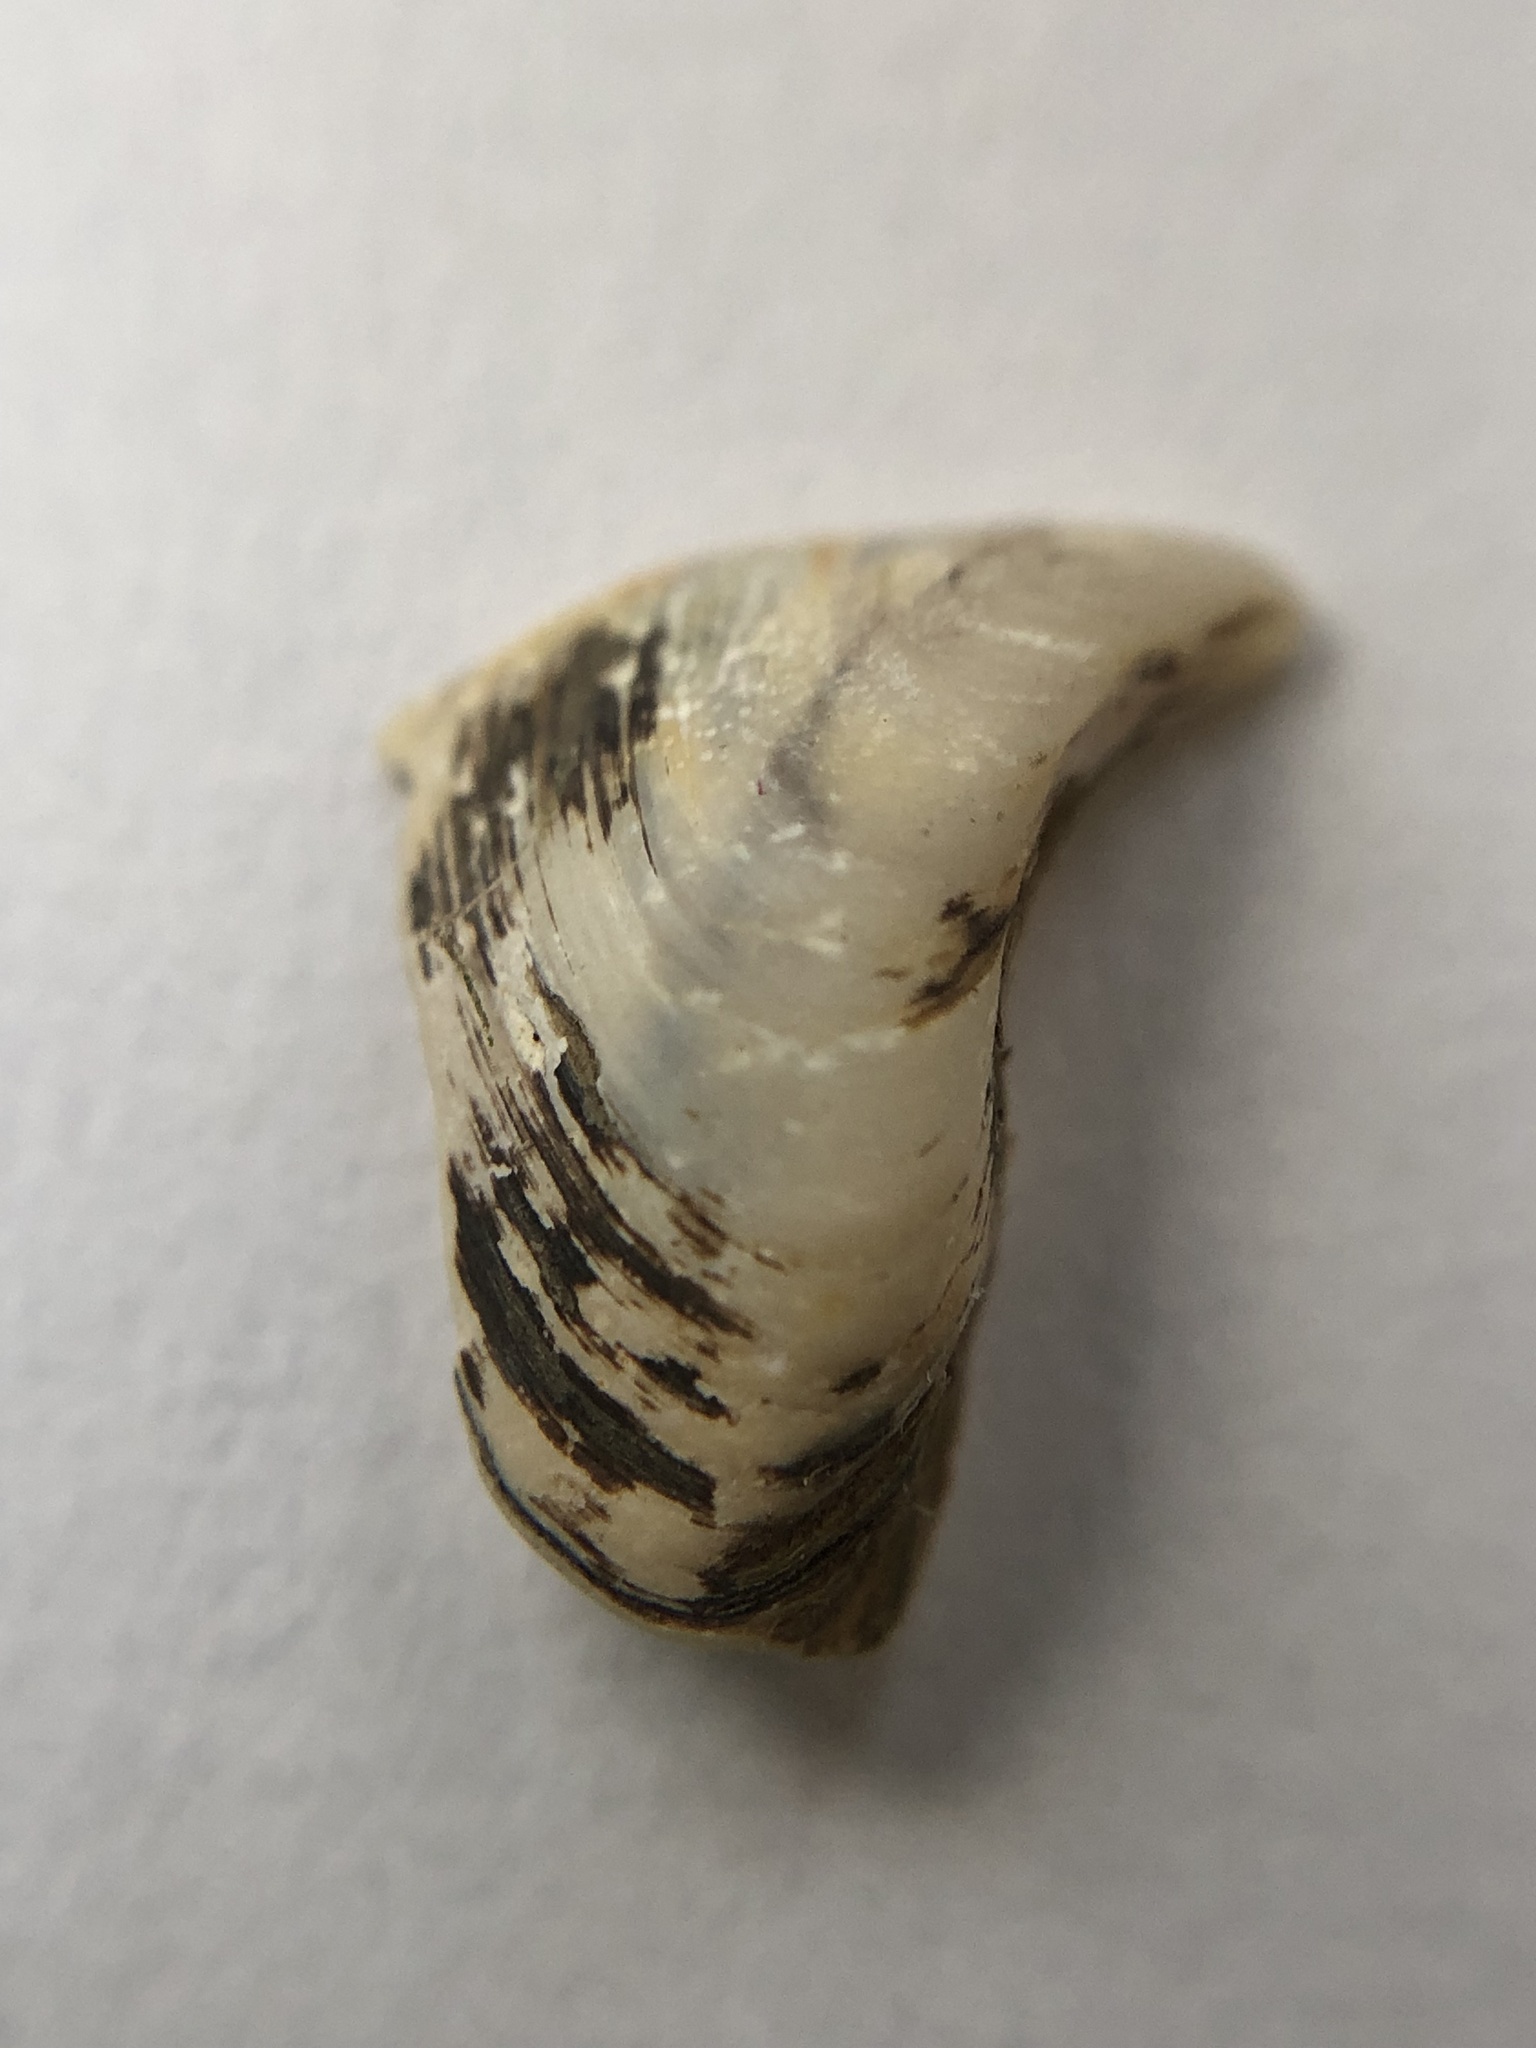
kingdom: Animalia
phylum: Mollusca
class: Bivalvia
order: Myida
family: Dreissenidae
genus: Dreissena
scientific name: Dreissena bugensis
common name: Quagga mussel
